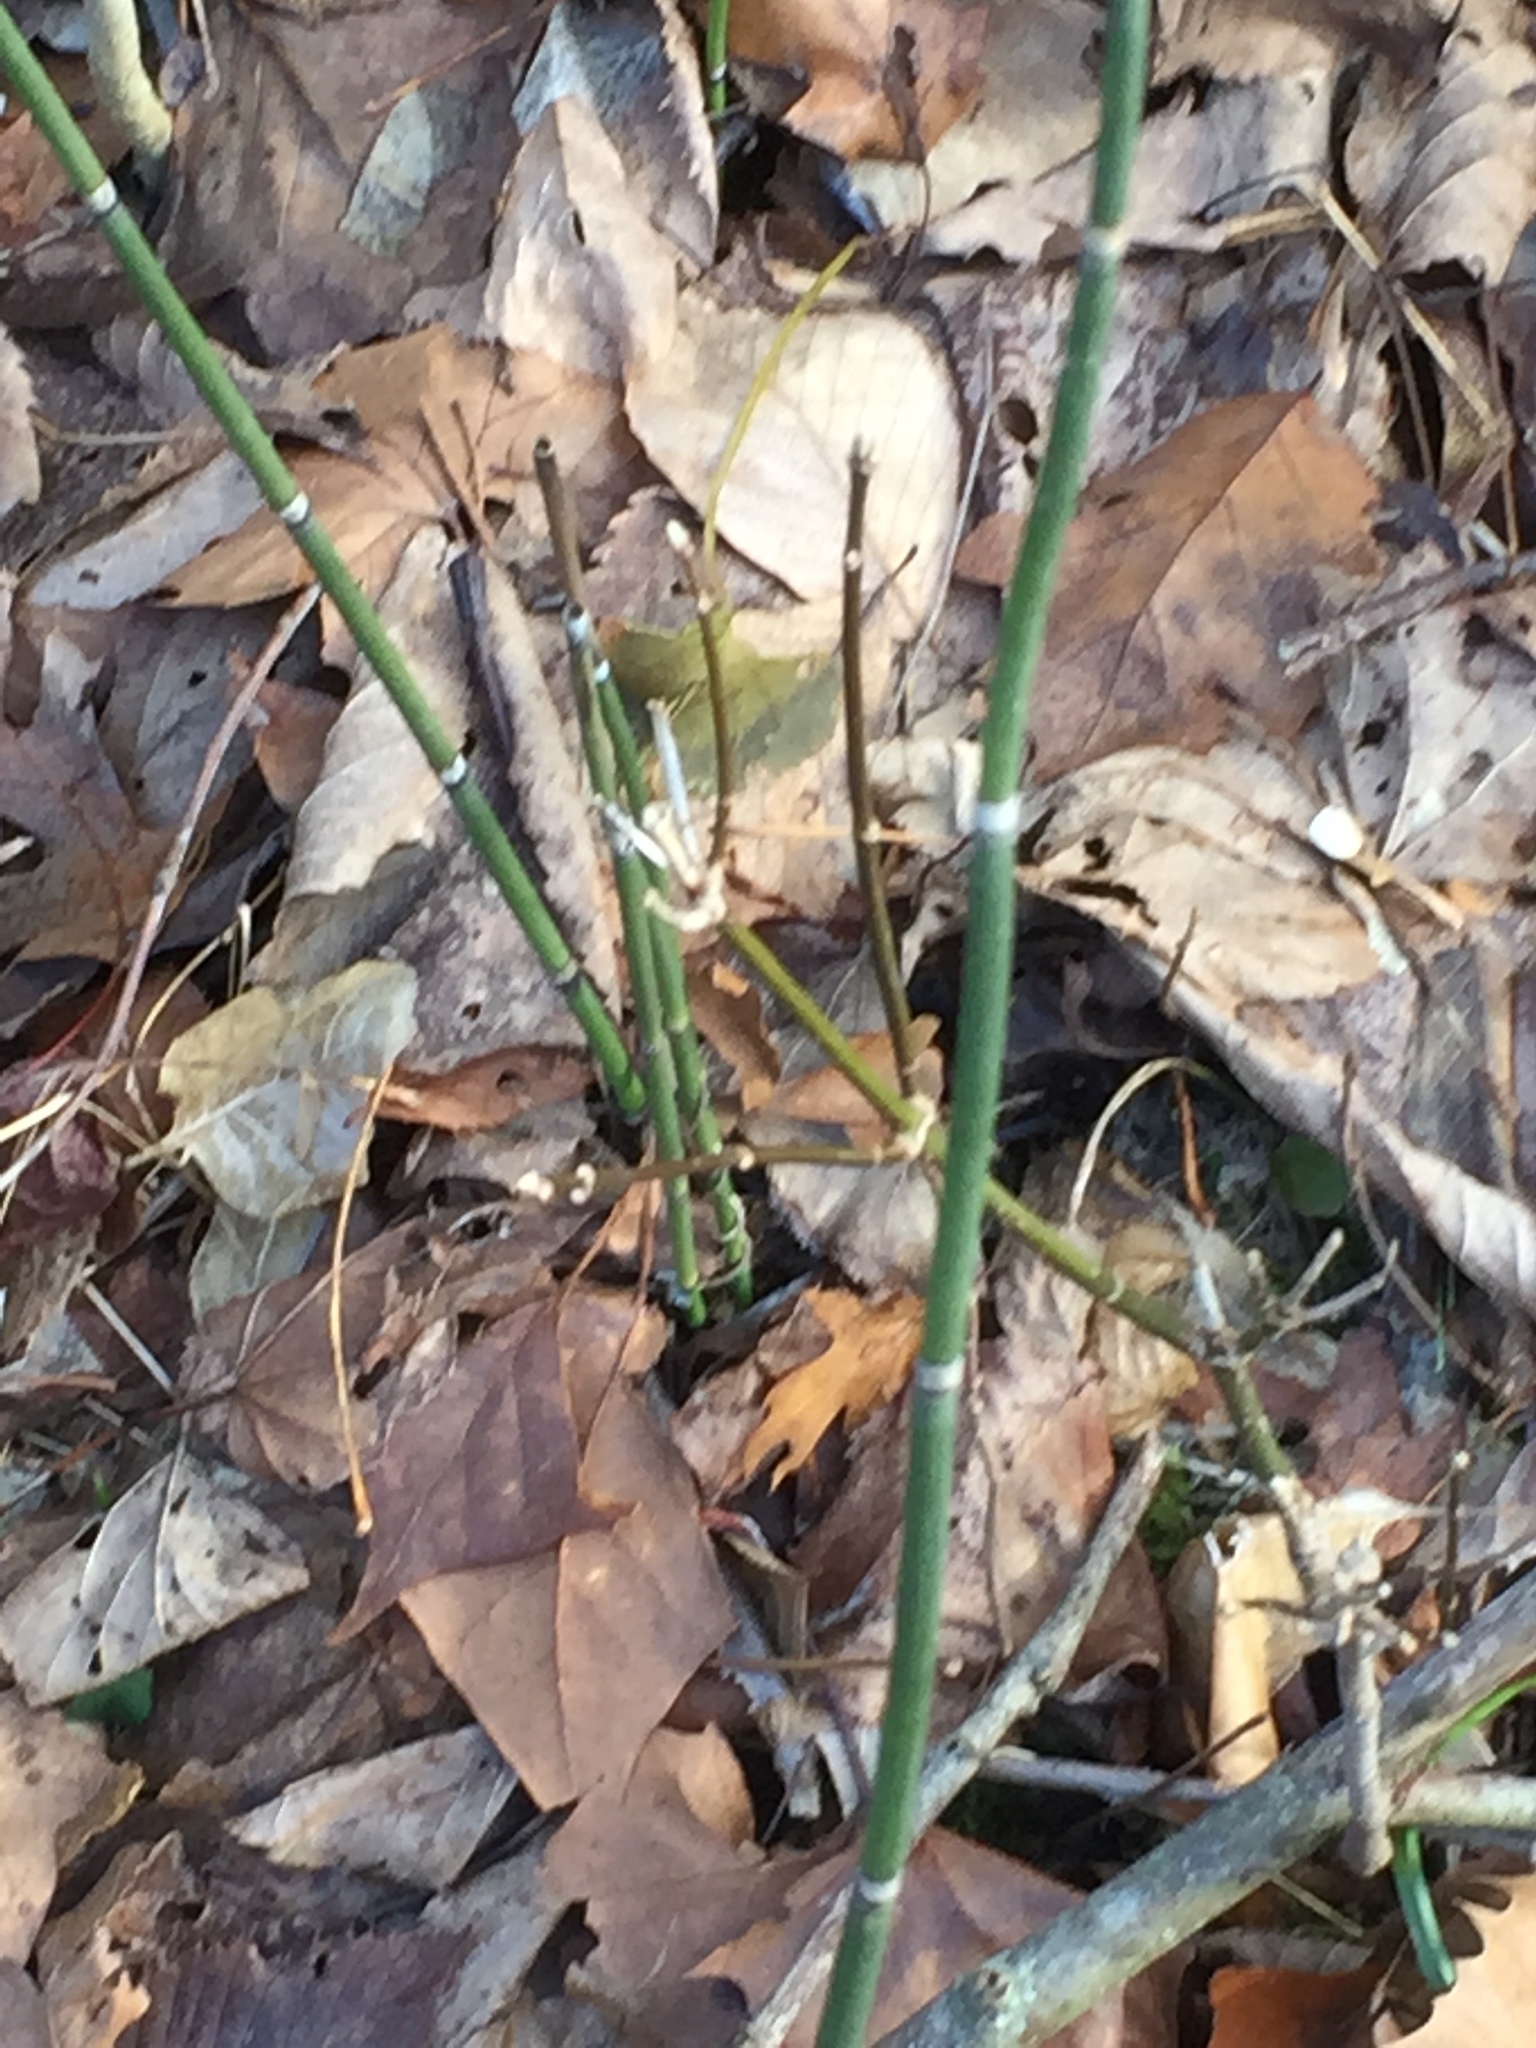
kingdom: Plantae
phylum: Tracheophyta
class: Polypodiopsida
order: Equisetales
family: Equisetaceae
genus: Equisetum
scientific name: Equisetum praealtum
